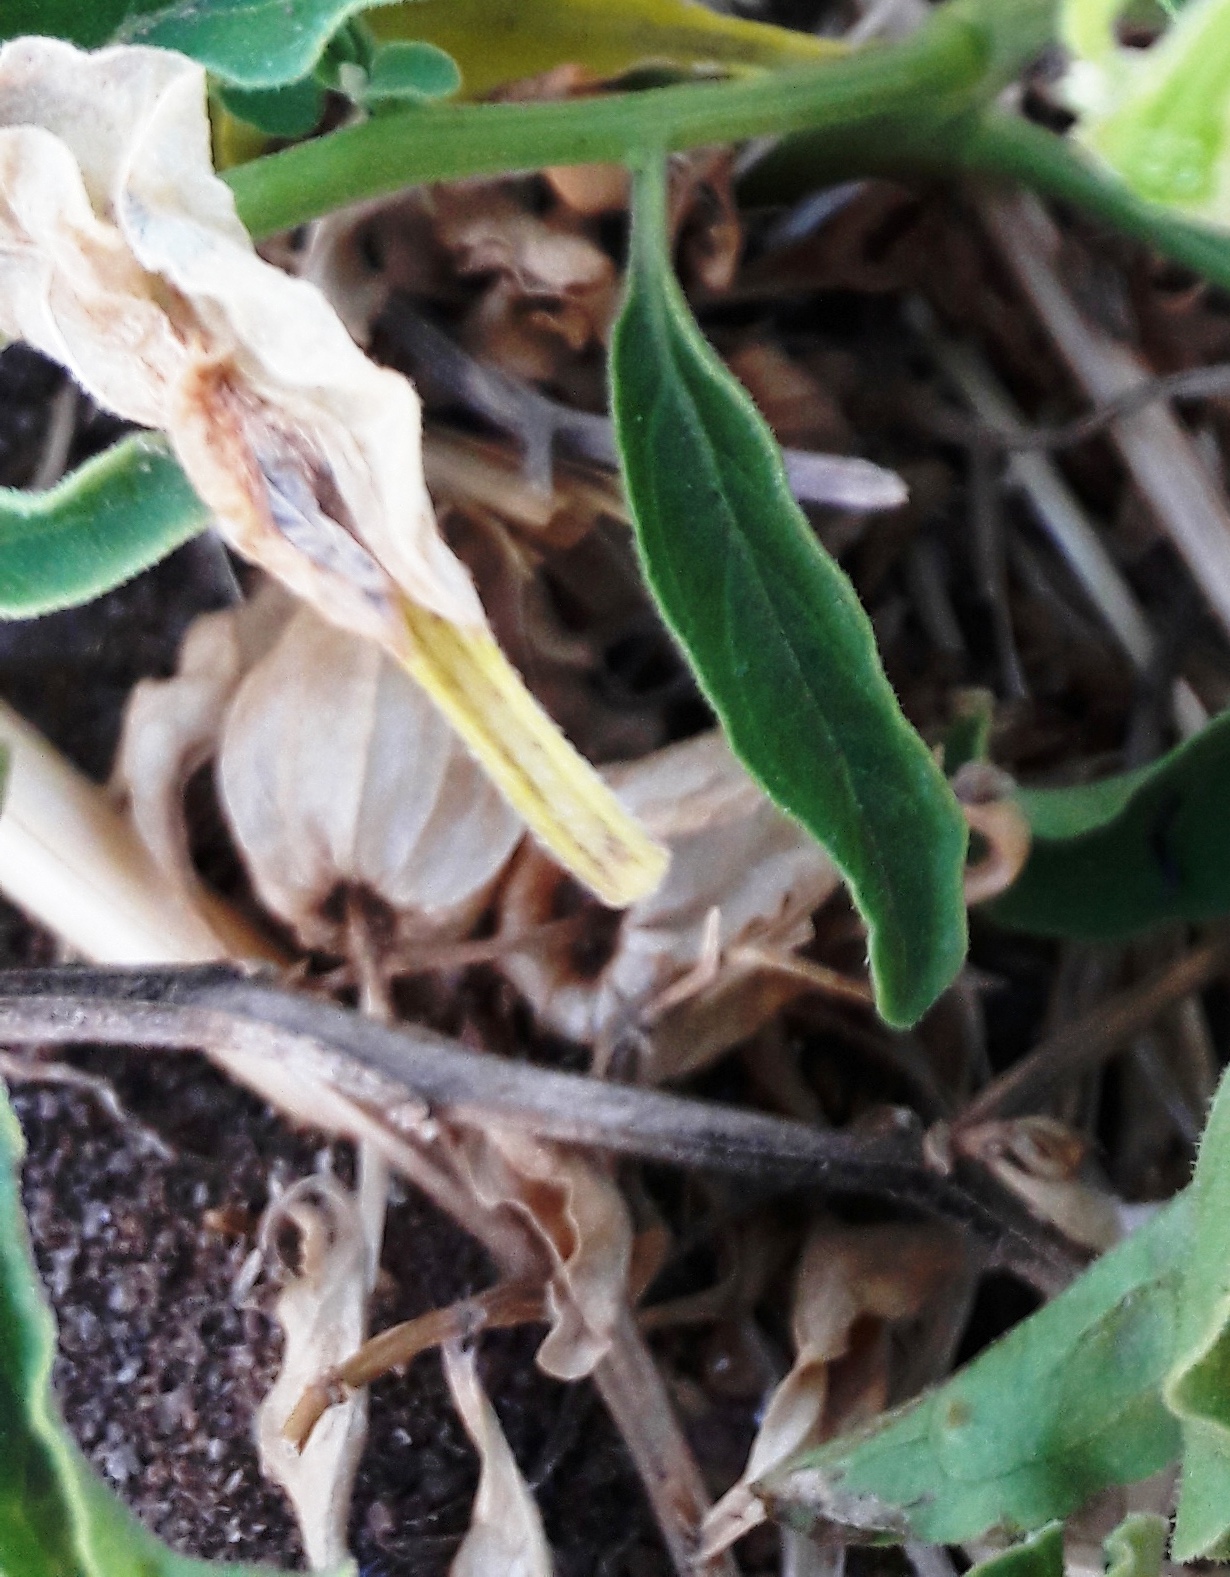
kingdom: Plantae
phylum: Tracheophyta
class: Magnoliopsida
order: Solanales
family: Solanaceae
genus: Physalis
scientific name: Physalis viscosa
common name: Stellate ground-cherry
